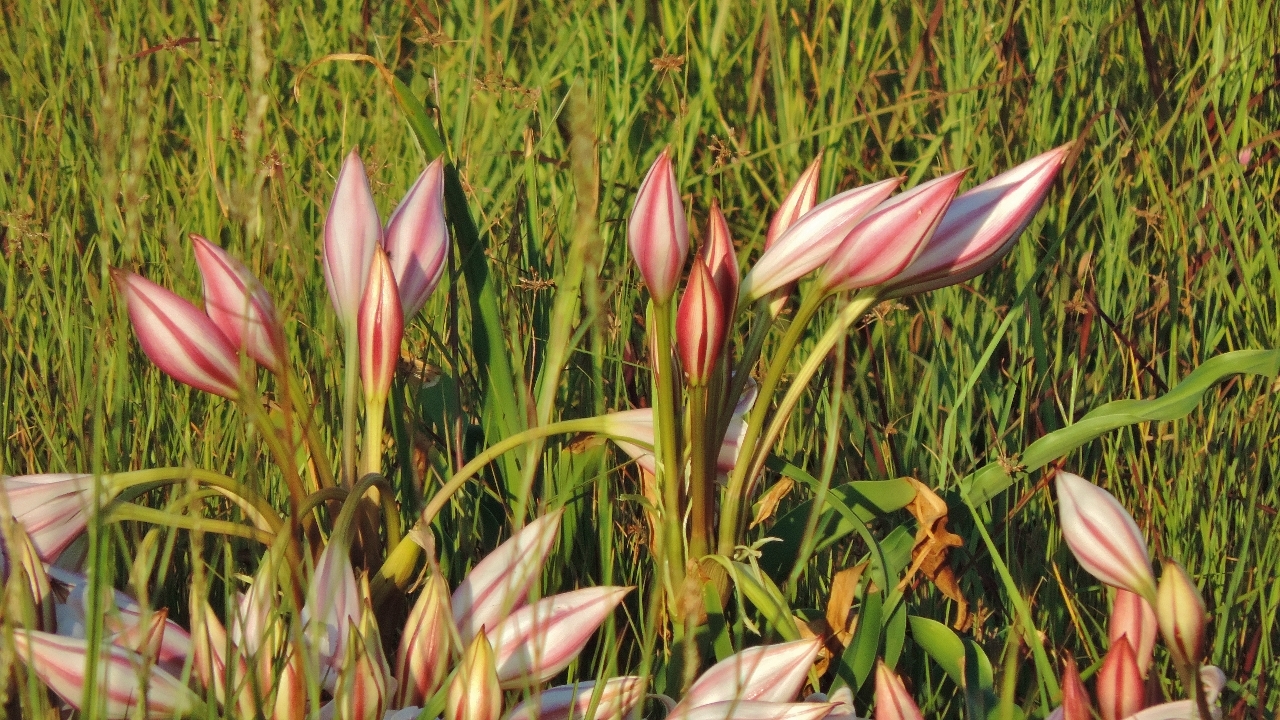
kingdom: Plantae
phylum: Tracheophyta
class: Liliopsida
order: Asparagales
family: Amaryllidaceae
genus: Crinum
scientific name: Crinum macowanii
